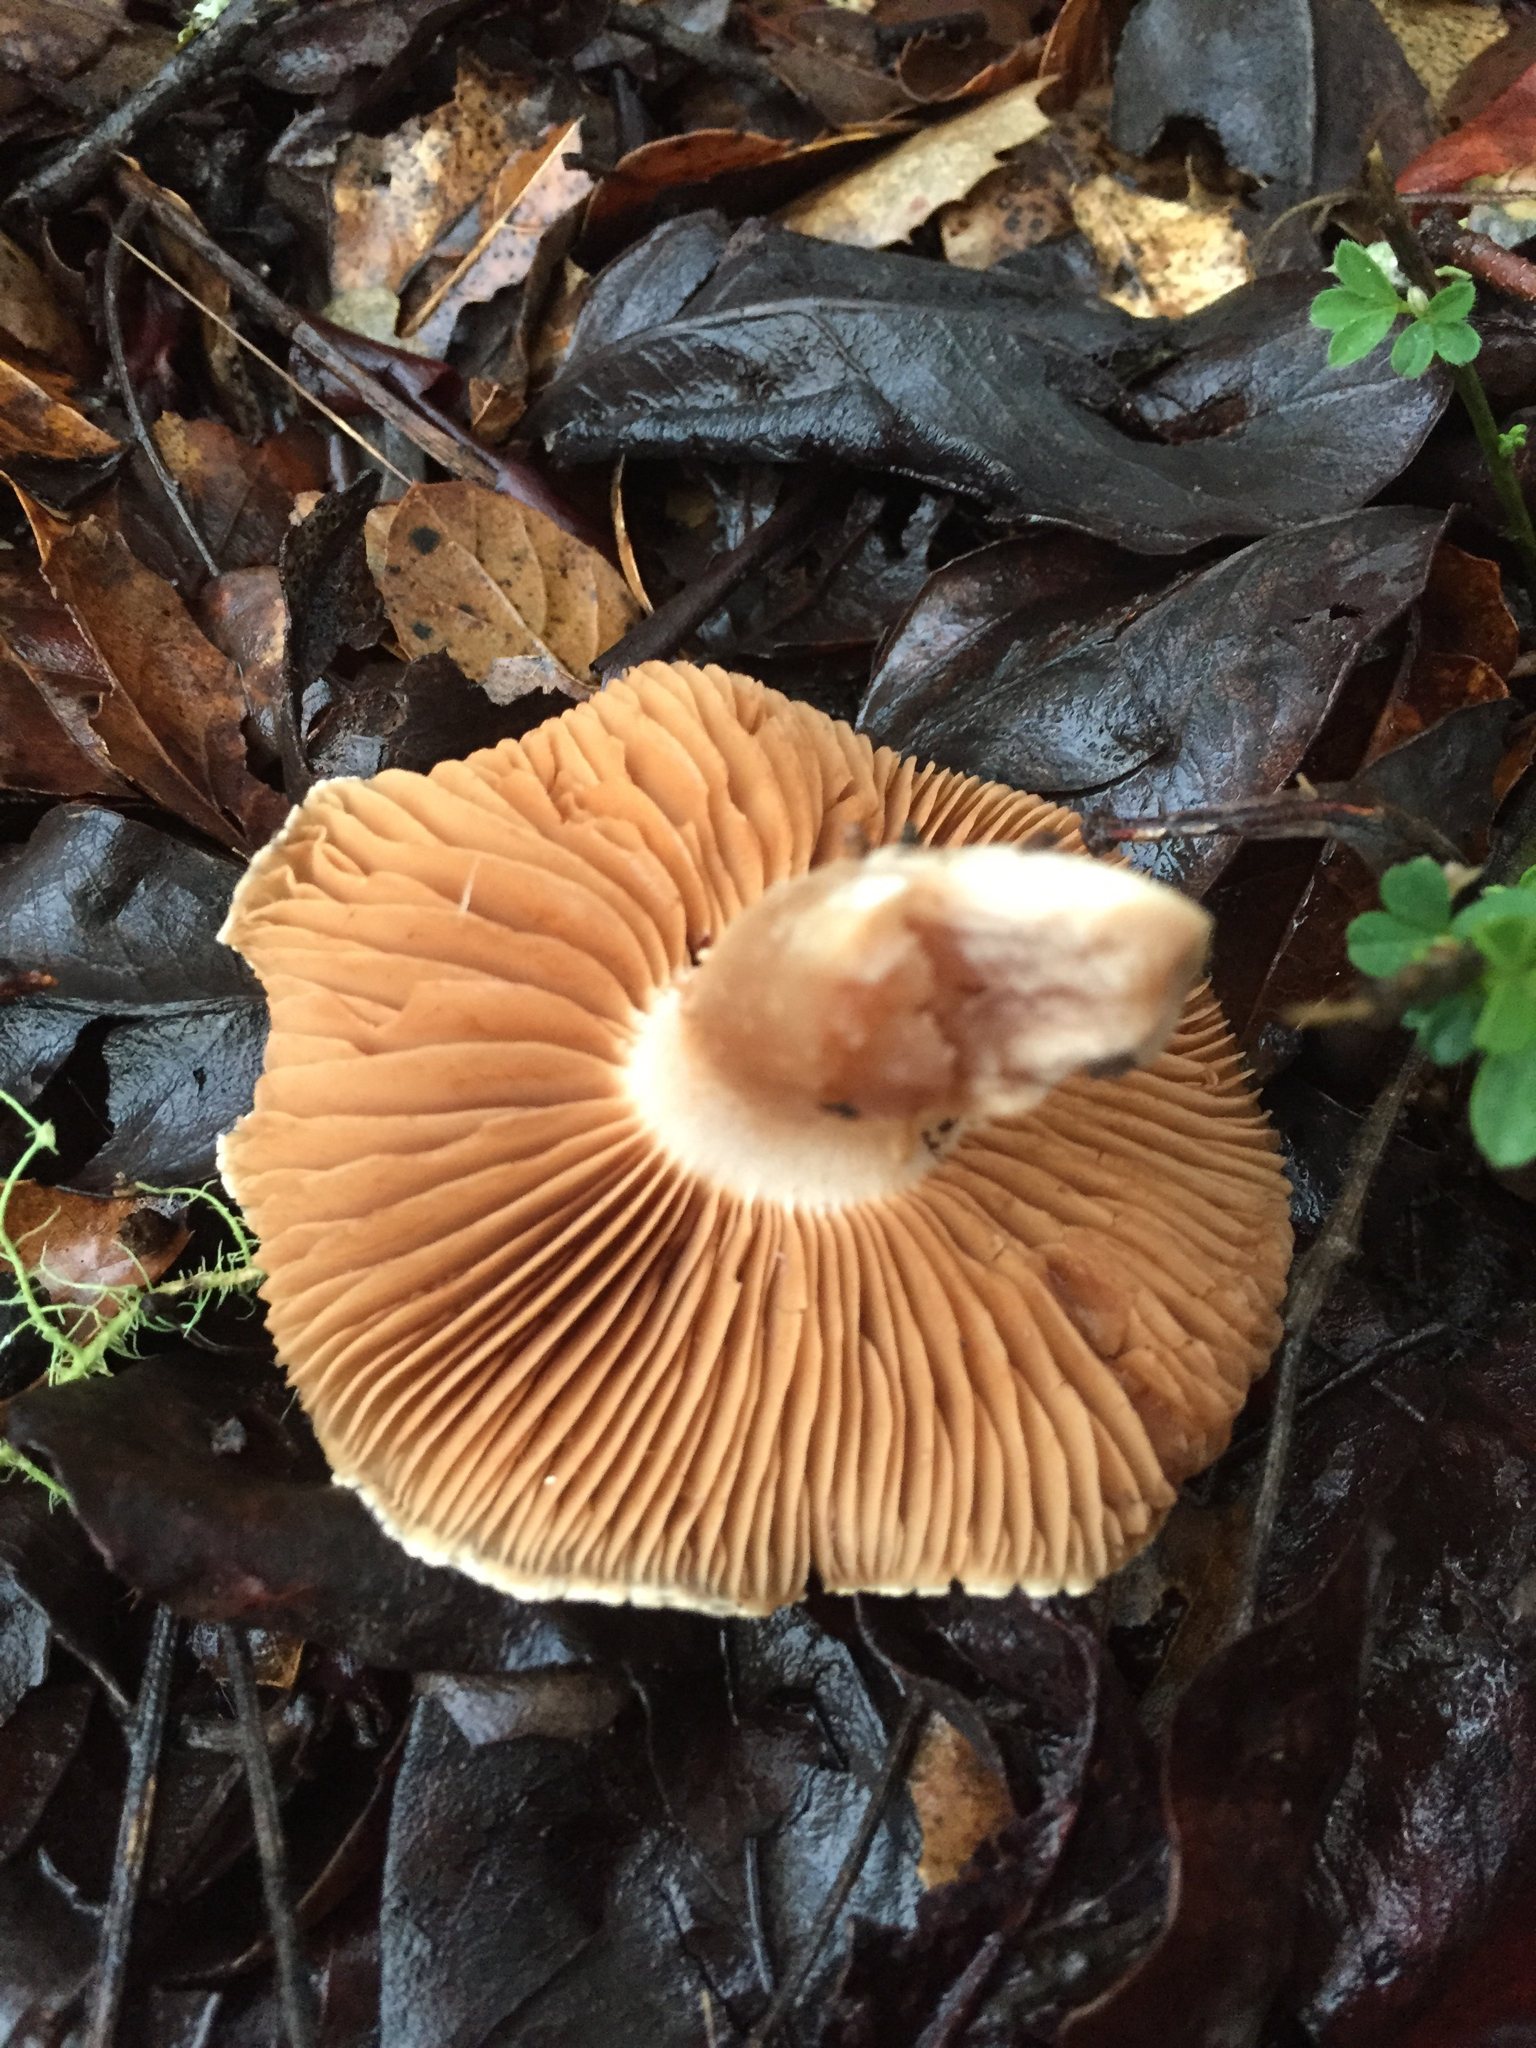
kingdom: Fungi
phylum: Basidiomycota
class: Agaricomycetes
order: Agaricales
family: Cortinariaceae
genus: Cortinarius
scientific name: Cortinarius cisqhale
